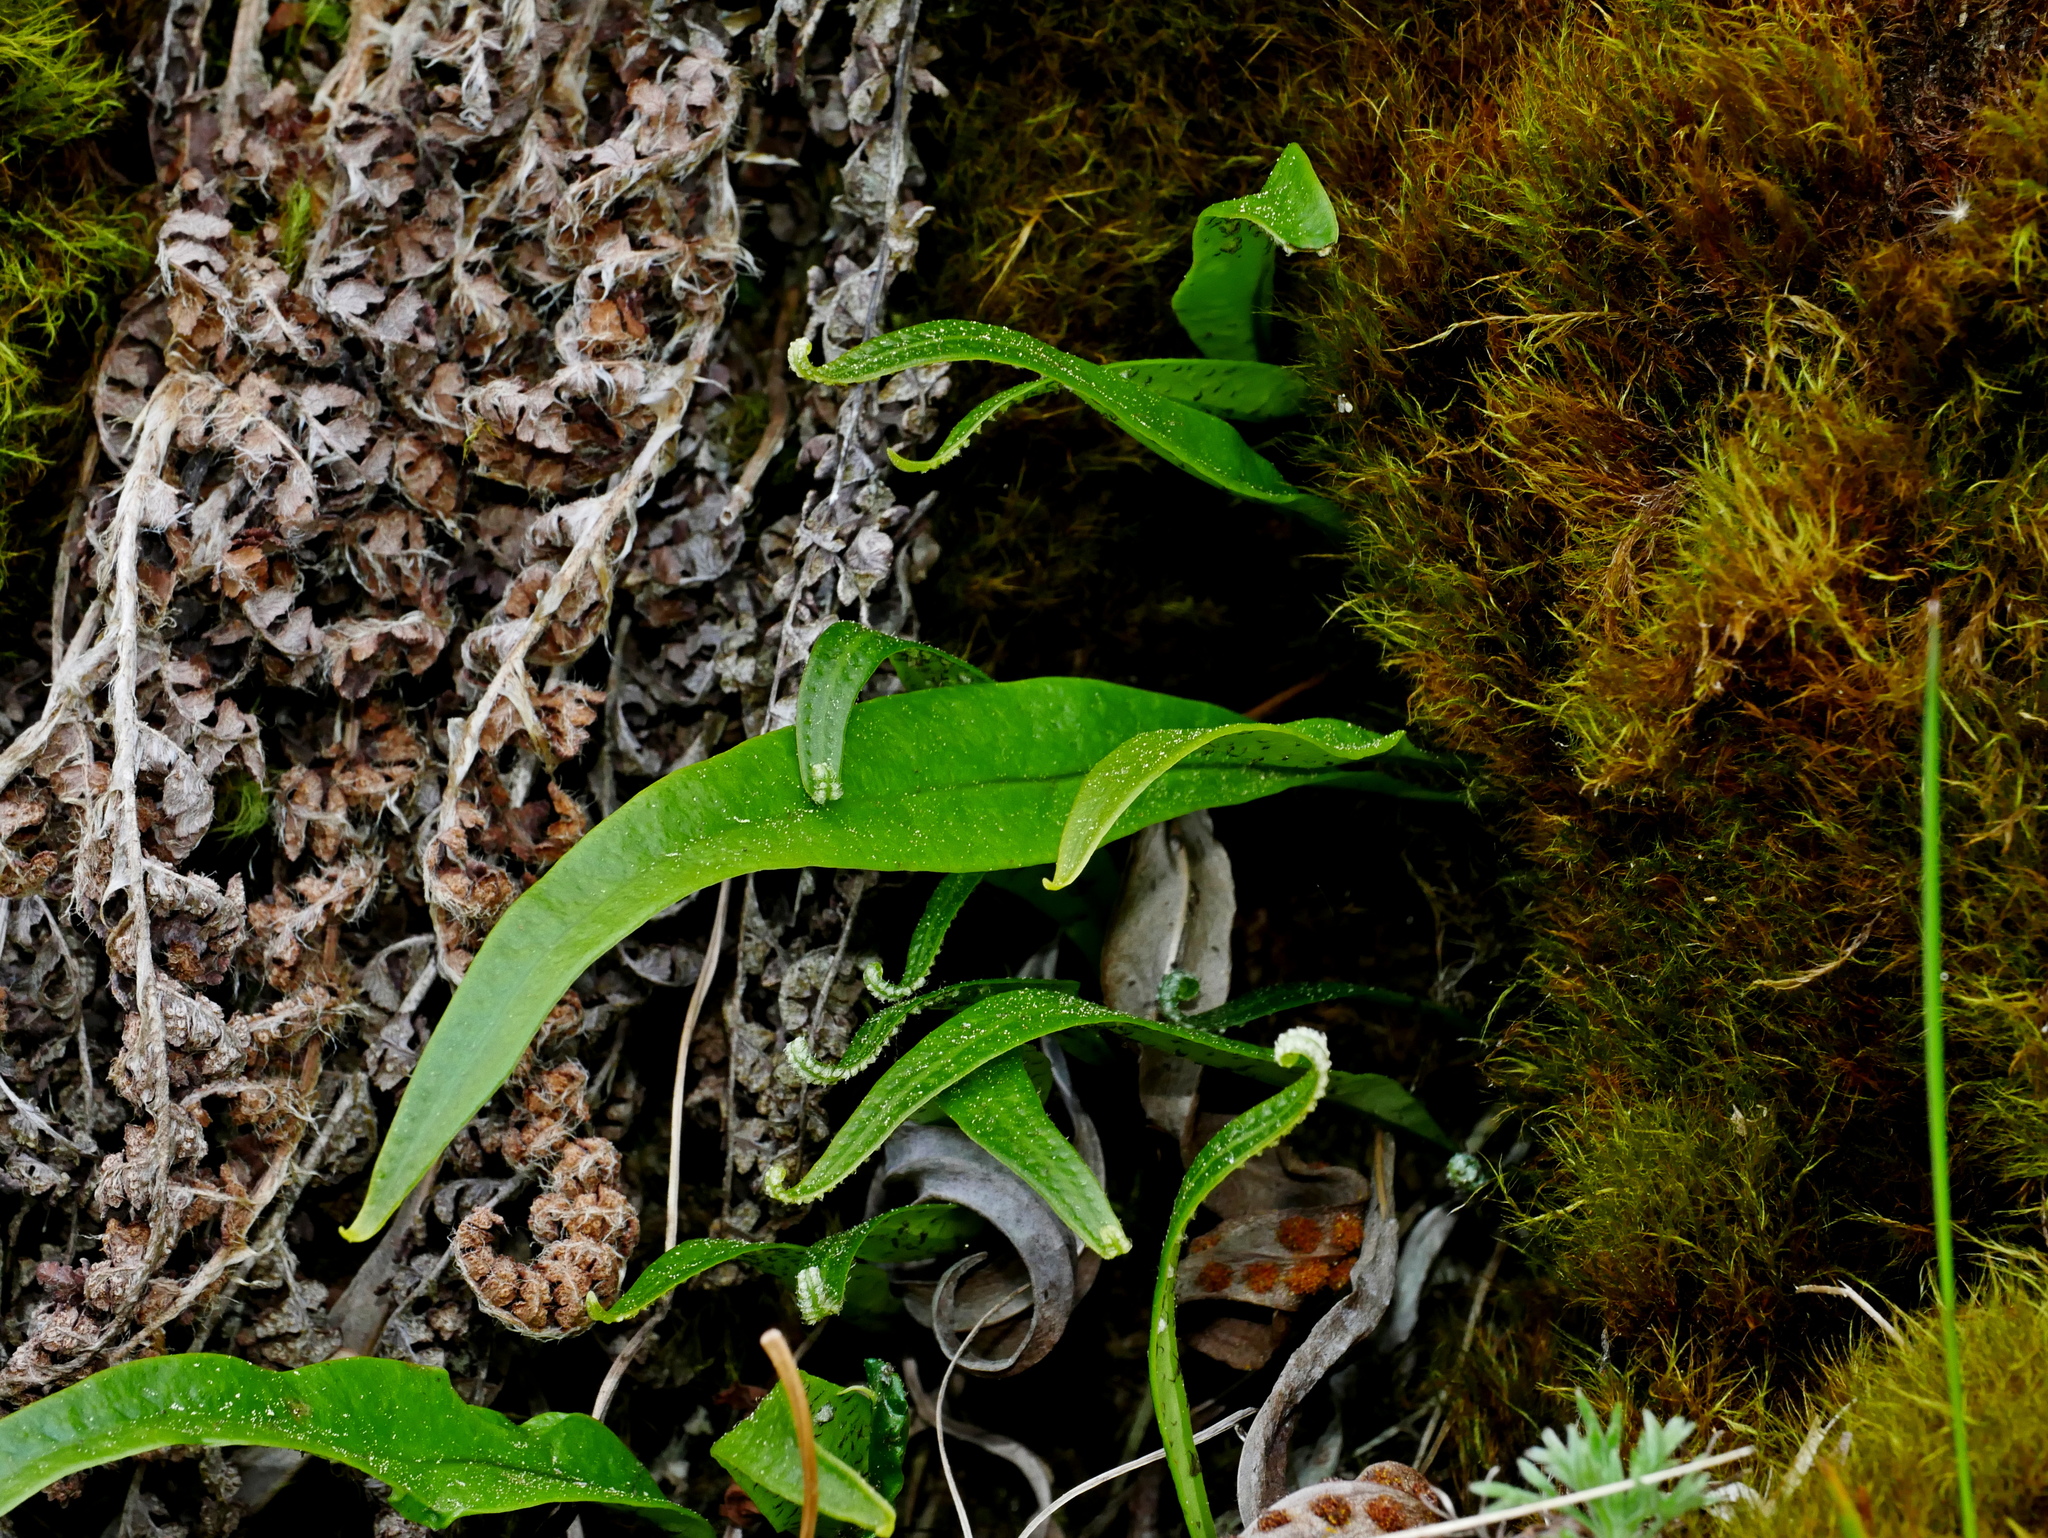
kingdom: Plantae
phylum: Tracheophyta
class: Polypodiopsida
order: Polypodiales
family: Polypodiaceae
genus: Lepisorus
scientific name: Lepisorus clathratus
